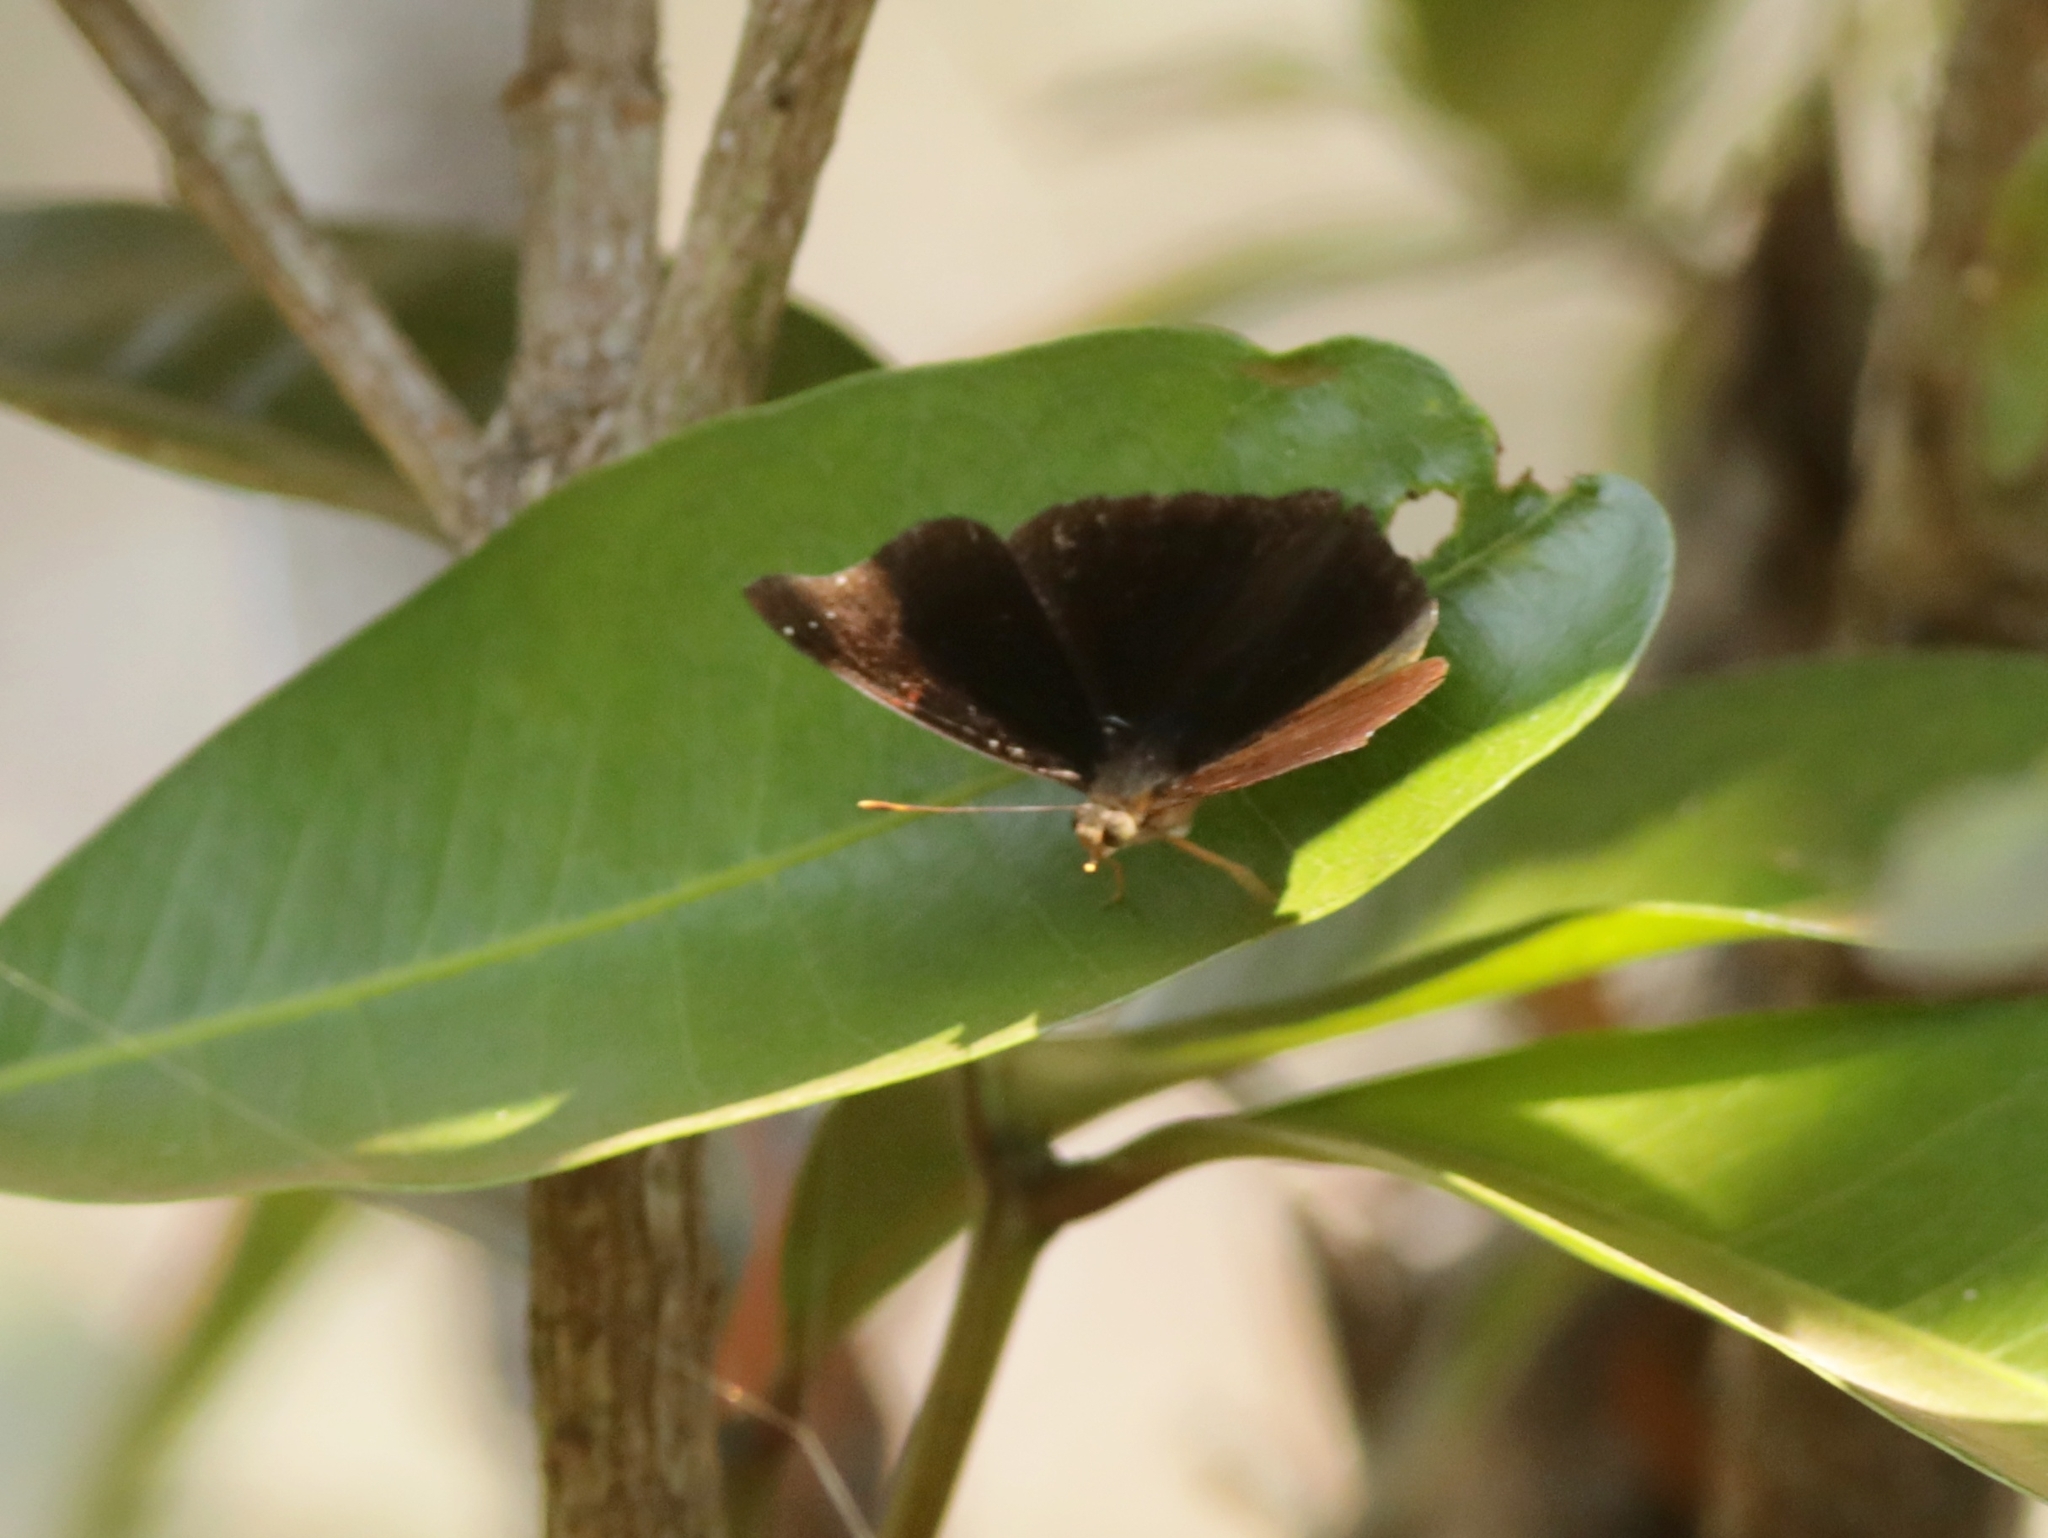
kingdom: Animalia
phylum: Arthropoda
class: Insecta
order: Lepidoptera
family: Nymphalidae
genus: Apatura
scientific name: Apatura Rohana spec
